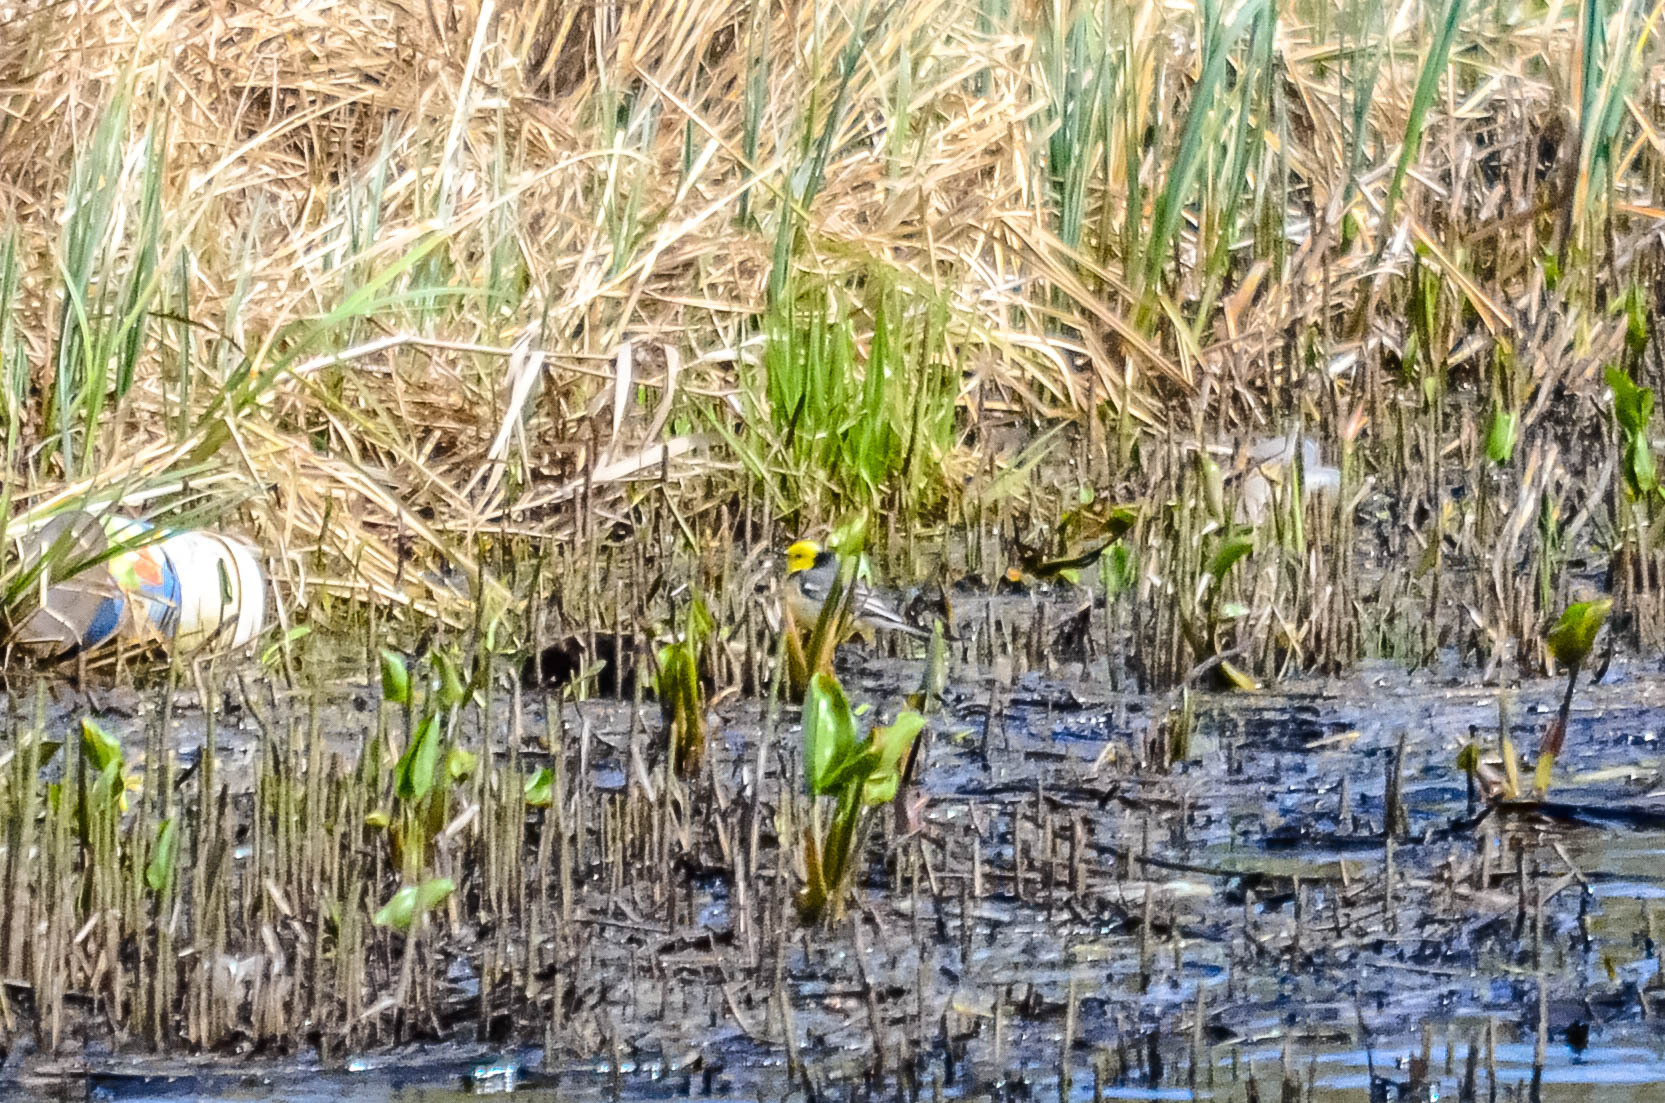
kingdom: Animalia
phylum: Chordata
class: Aves
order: Passeriformes
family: Motacillidae
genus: Motacilla
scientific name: Motacilla citreola
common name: Citrine wagtail
